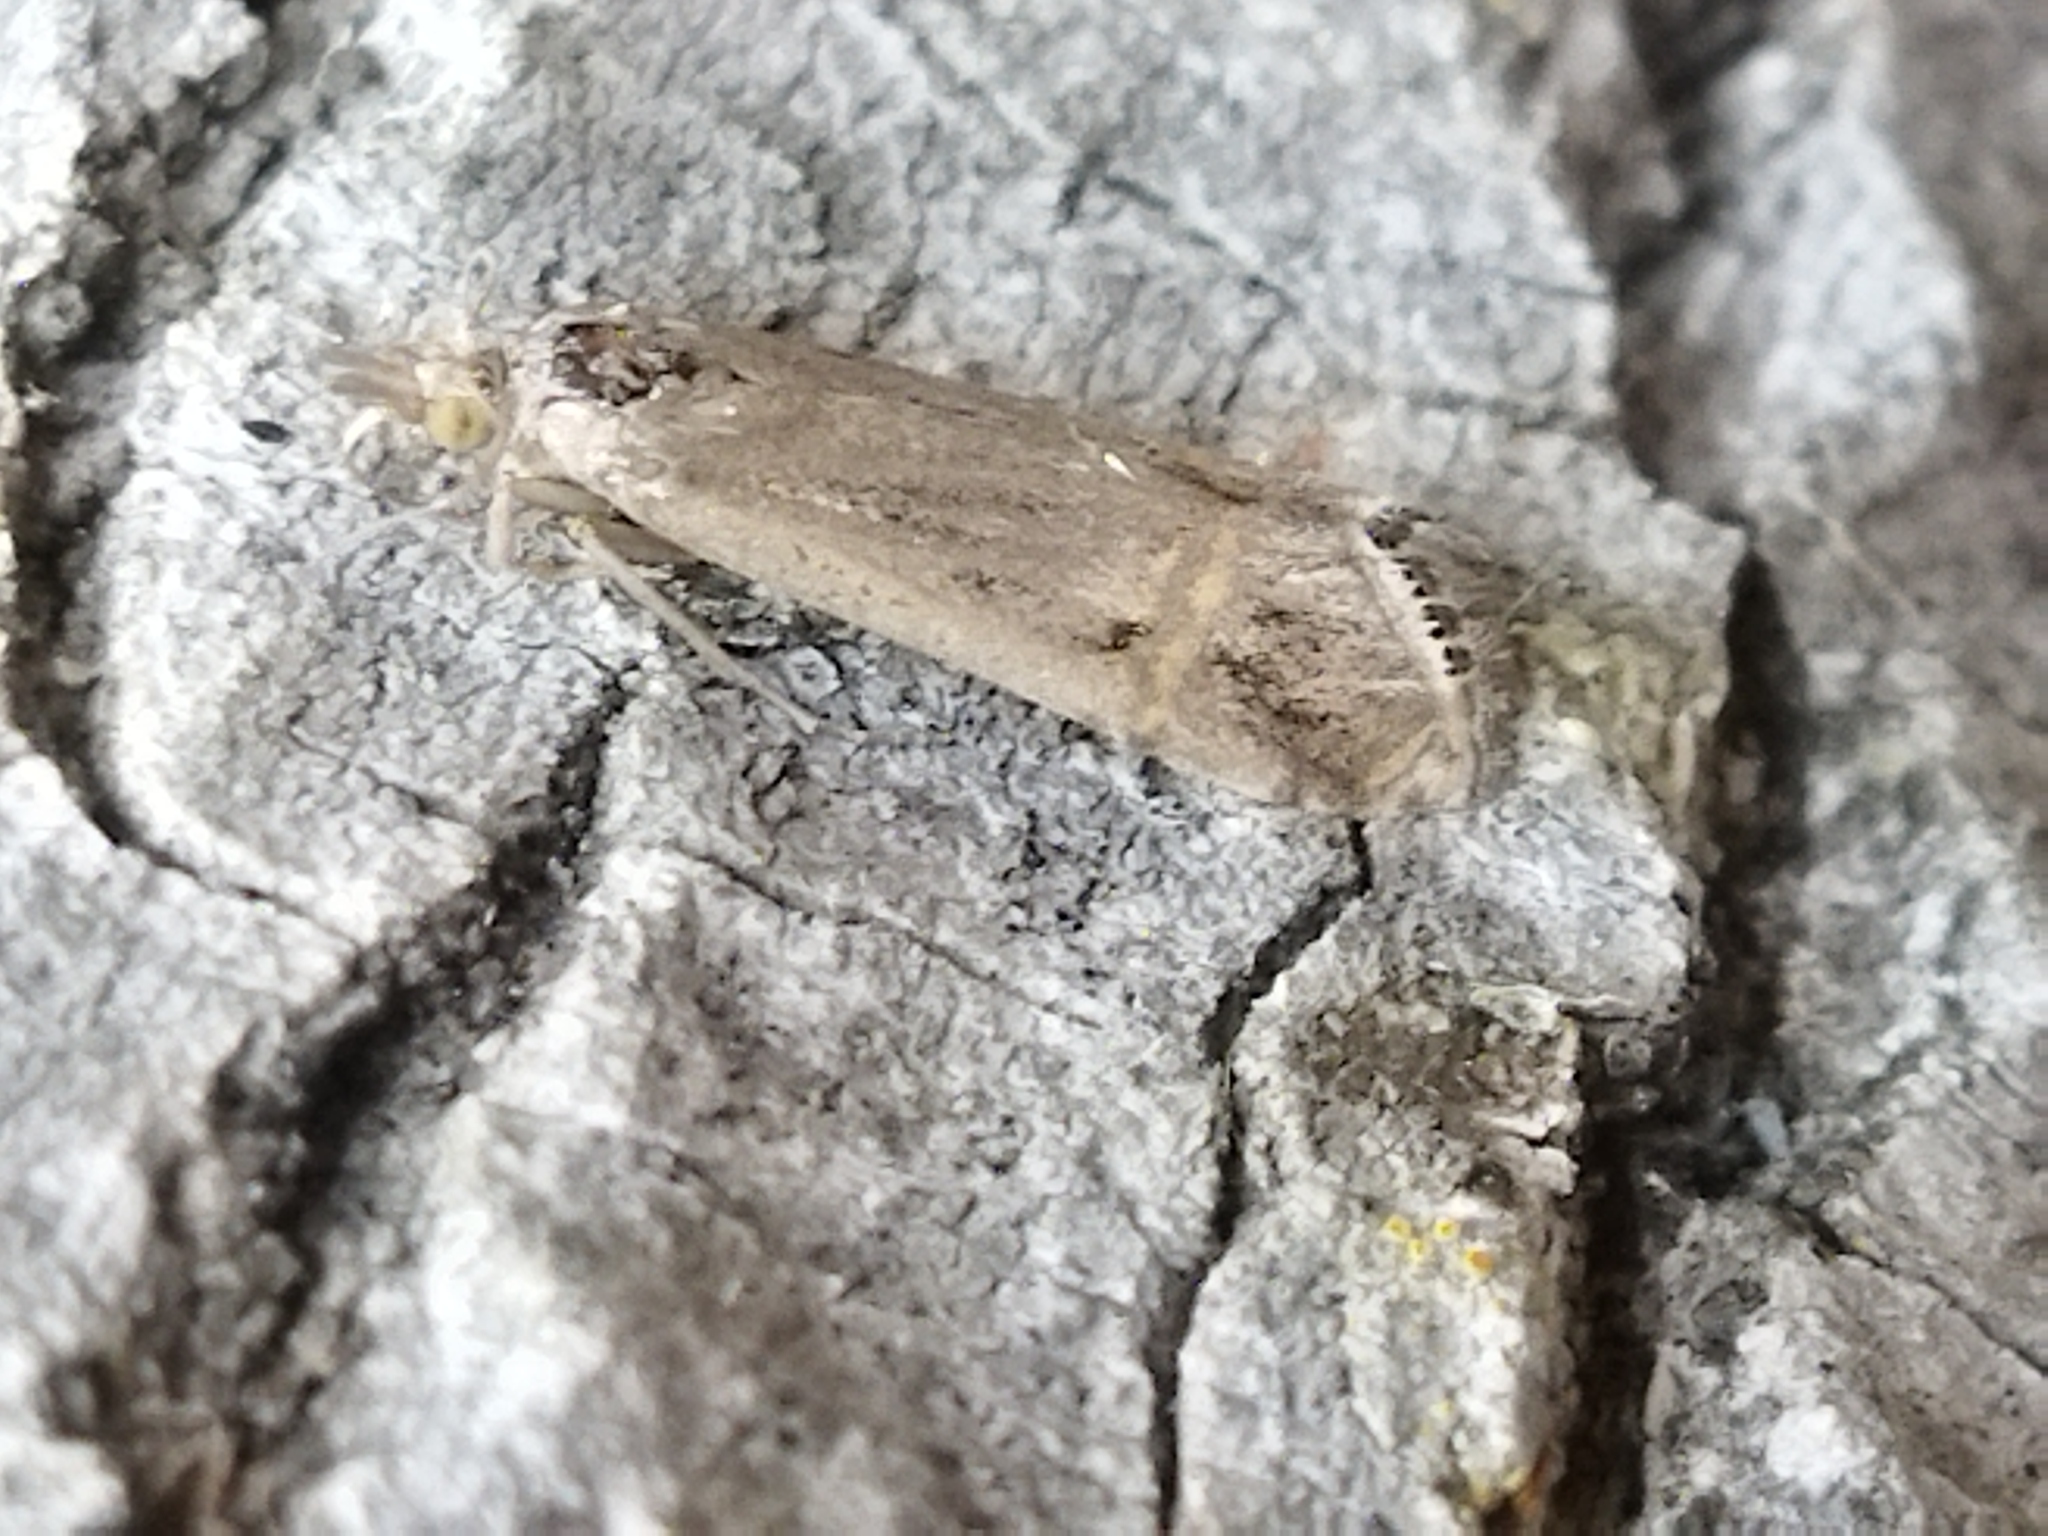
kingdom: Animalia
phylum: Arthropoda
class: Insecta
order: Lepidoptera
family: Crambidae
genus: Euchromius
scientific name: Euchromius ocellea
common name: Necklace veneer moth
